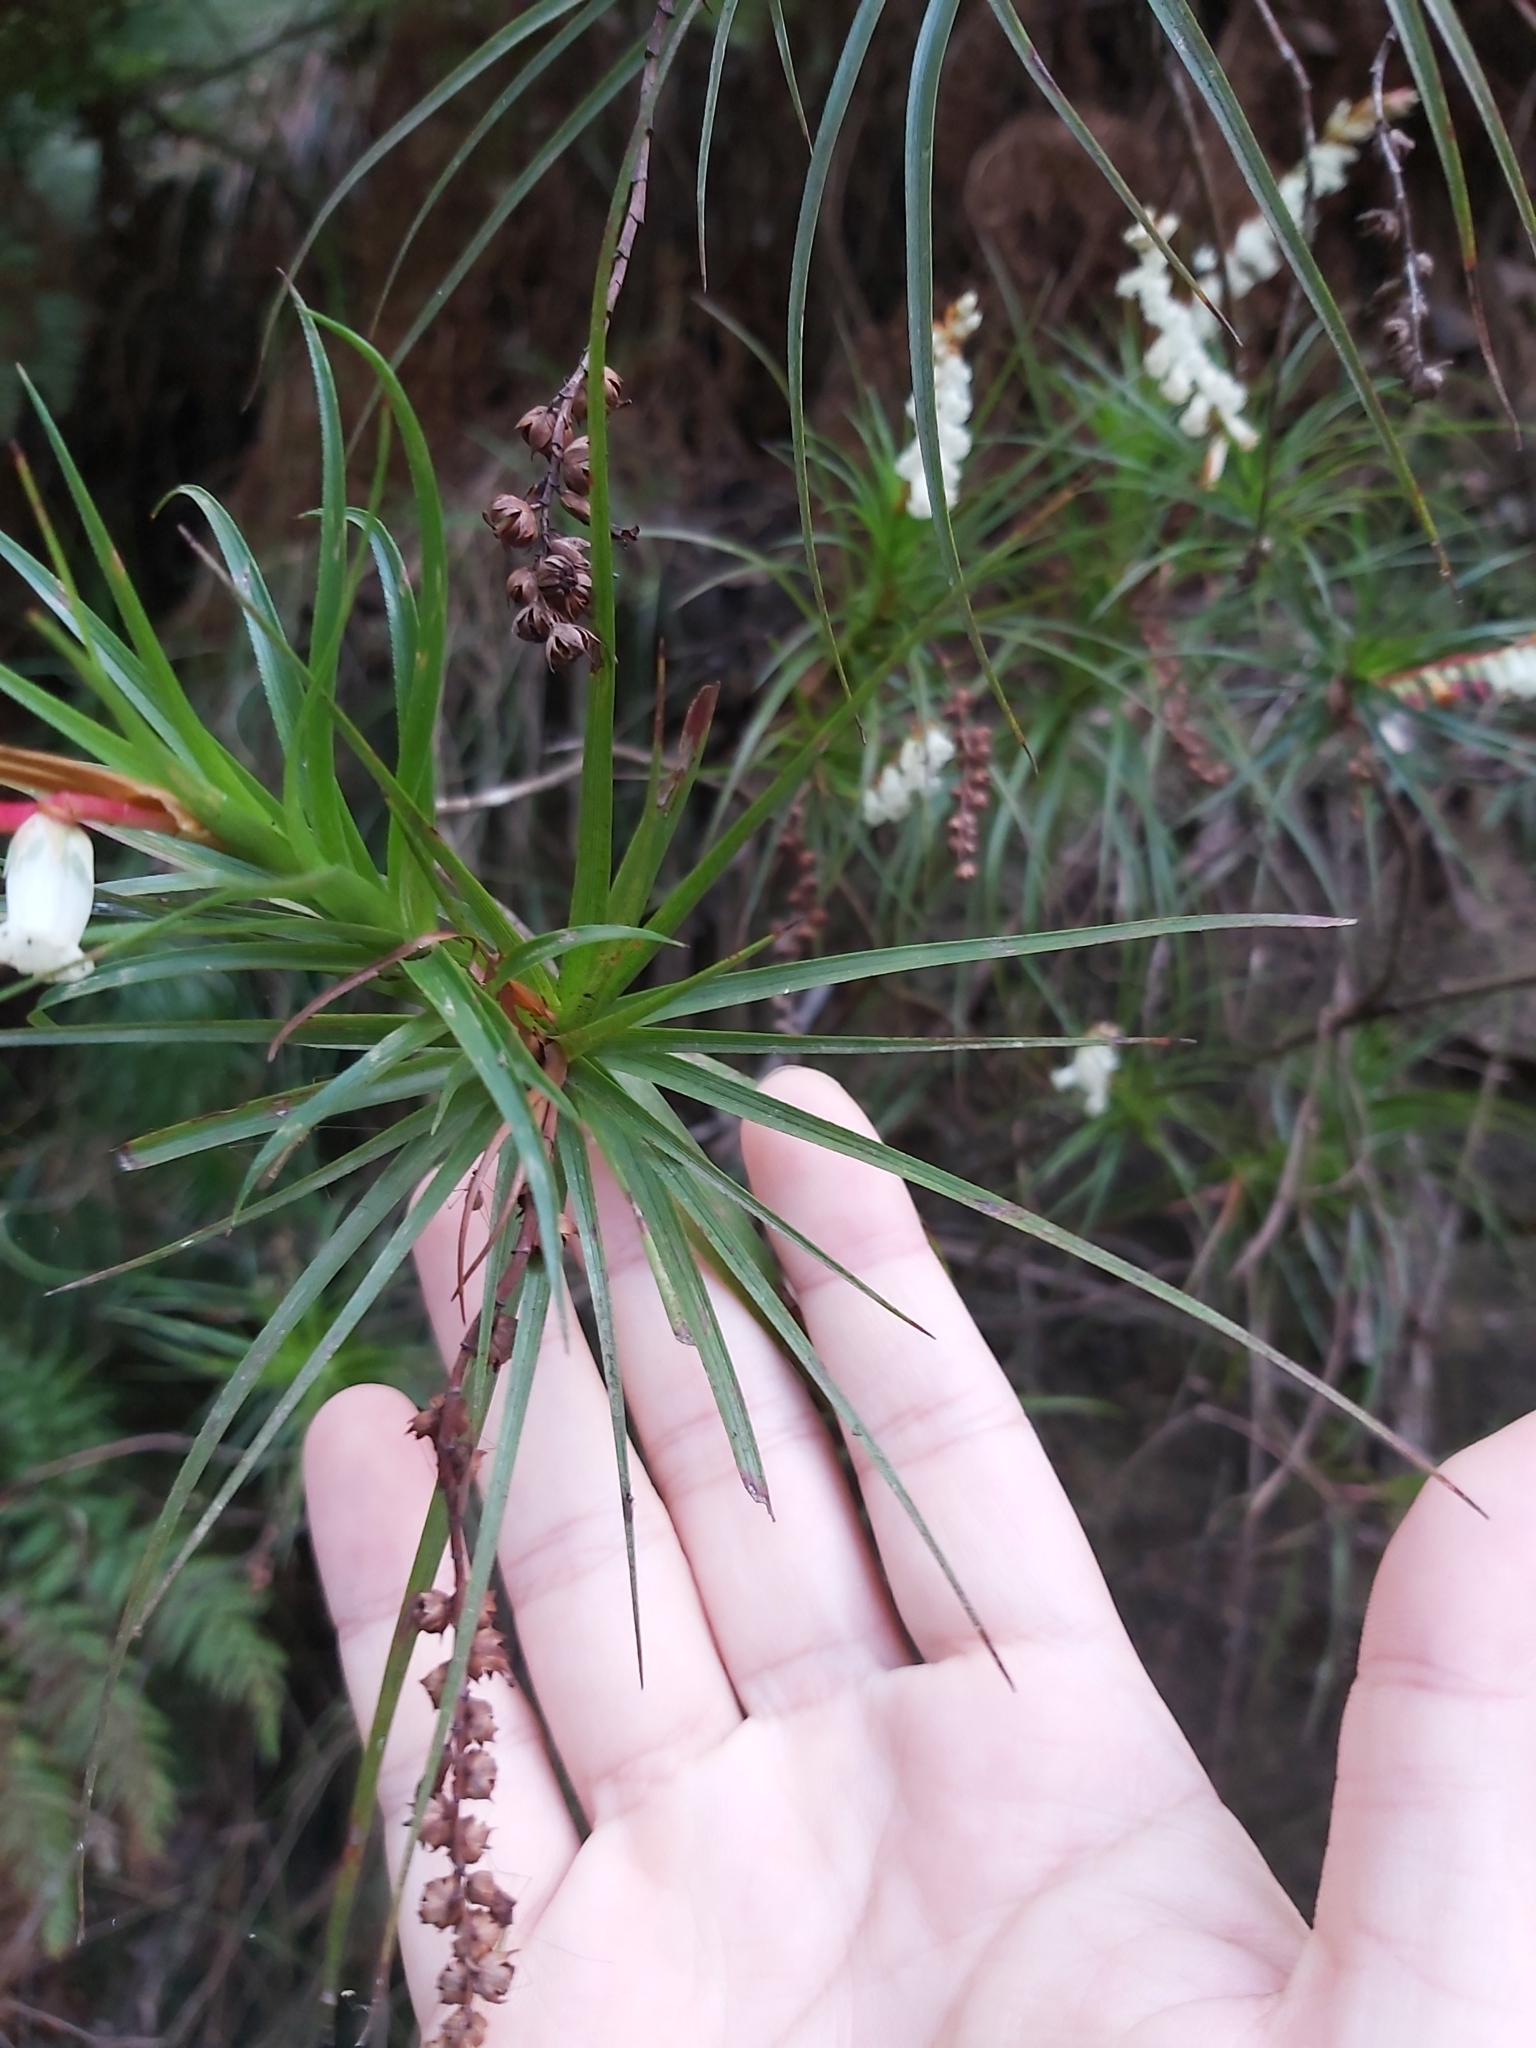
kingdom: Plantae
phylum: Tracheophyta
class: Magnoliopsida
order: Ericales
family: Ericaceae
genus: Dracophyllum
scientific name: Dracophyllum secundum
